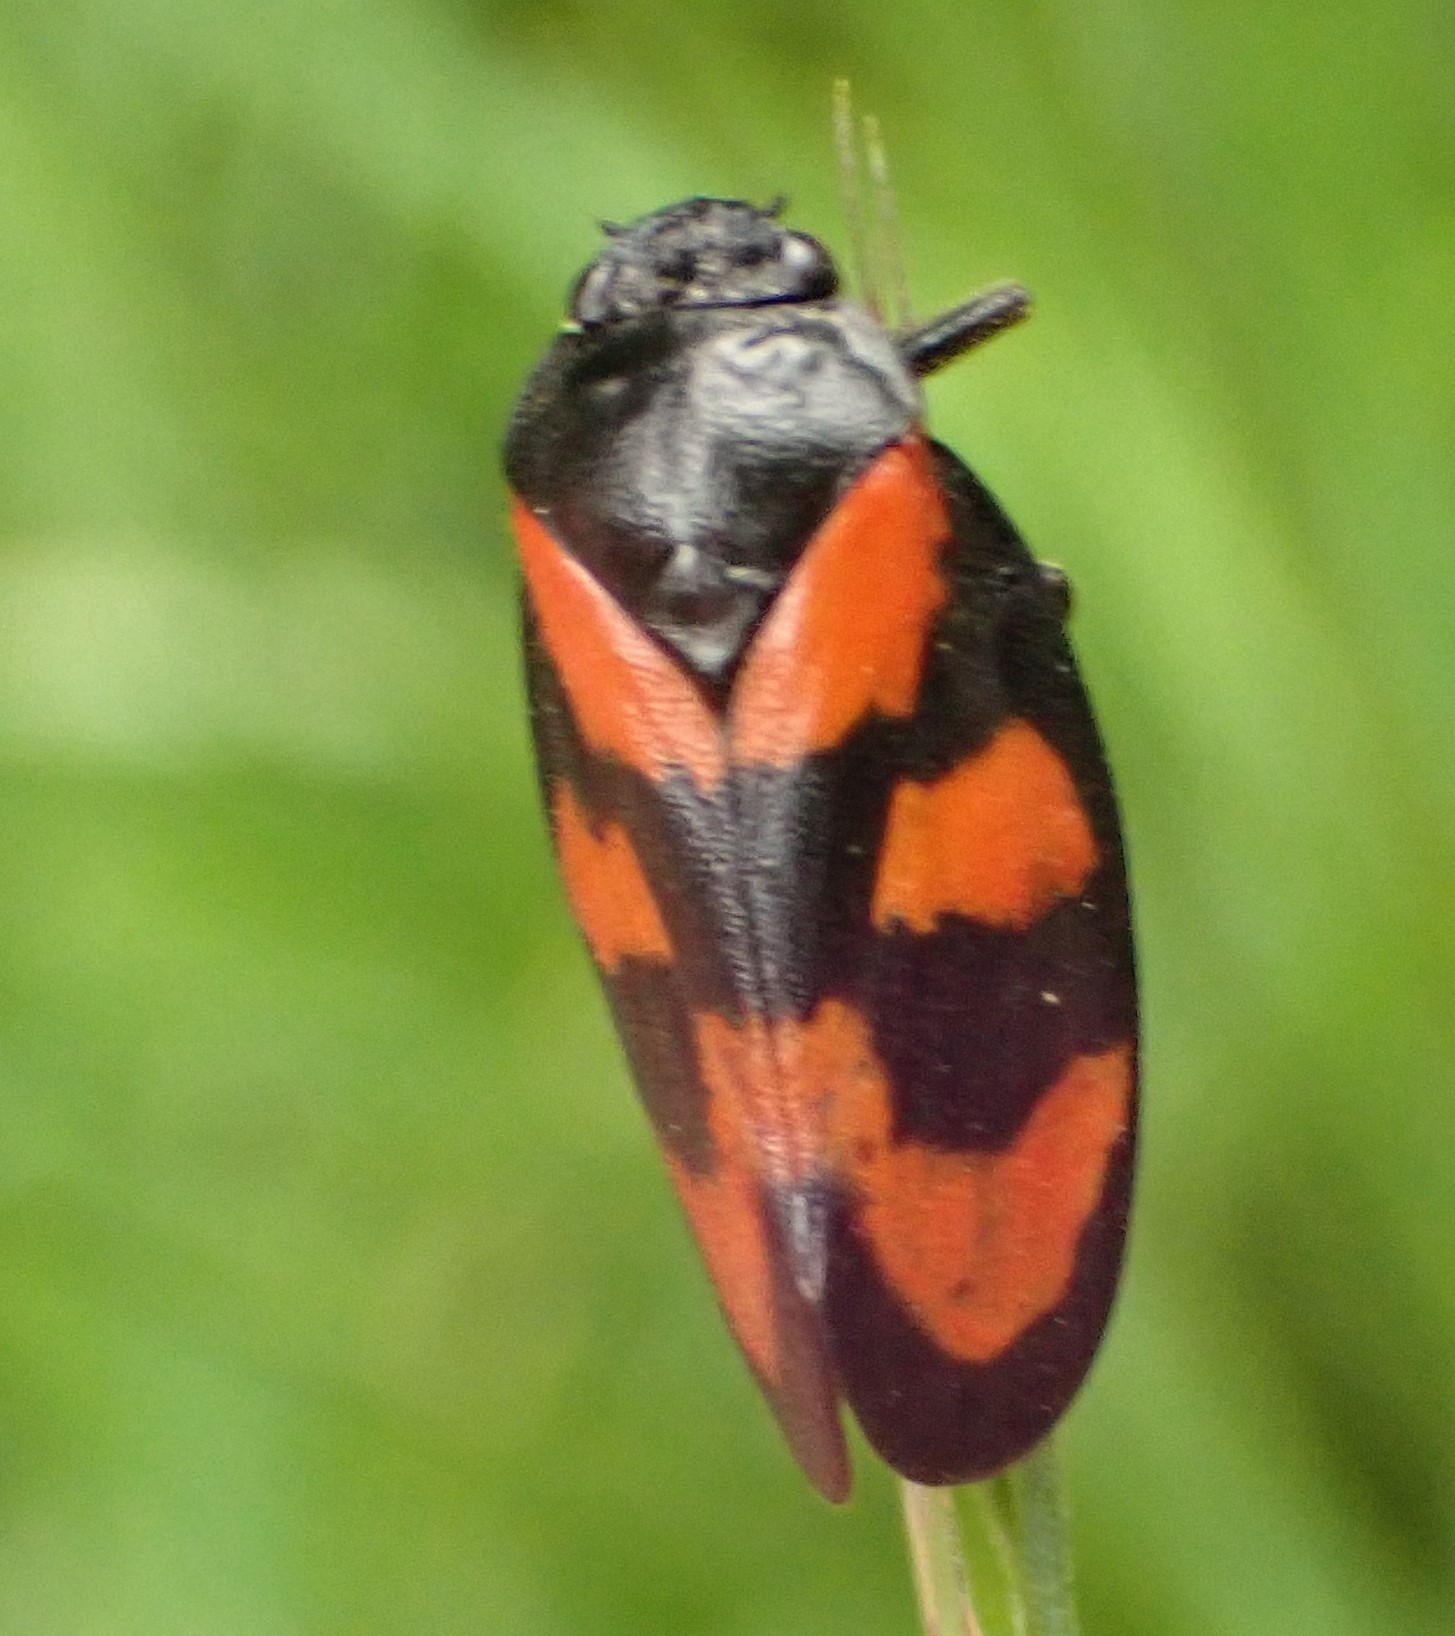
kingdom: Animalia
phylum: Arthropoda
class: Insecta
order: Hemiptera
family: Cercopidae
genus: Cercopis
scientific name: Cercopis vulnerata
